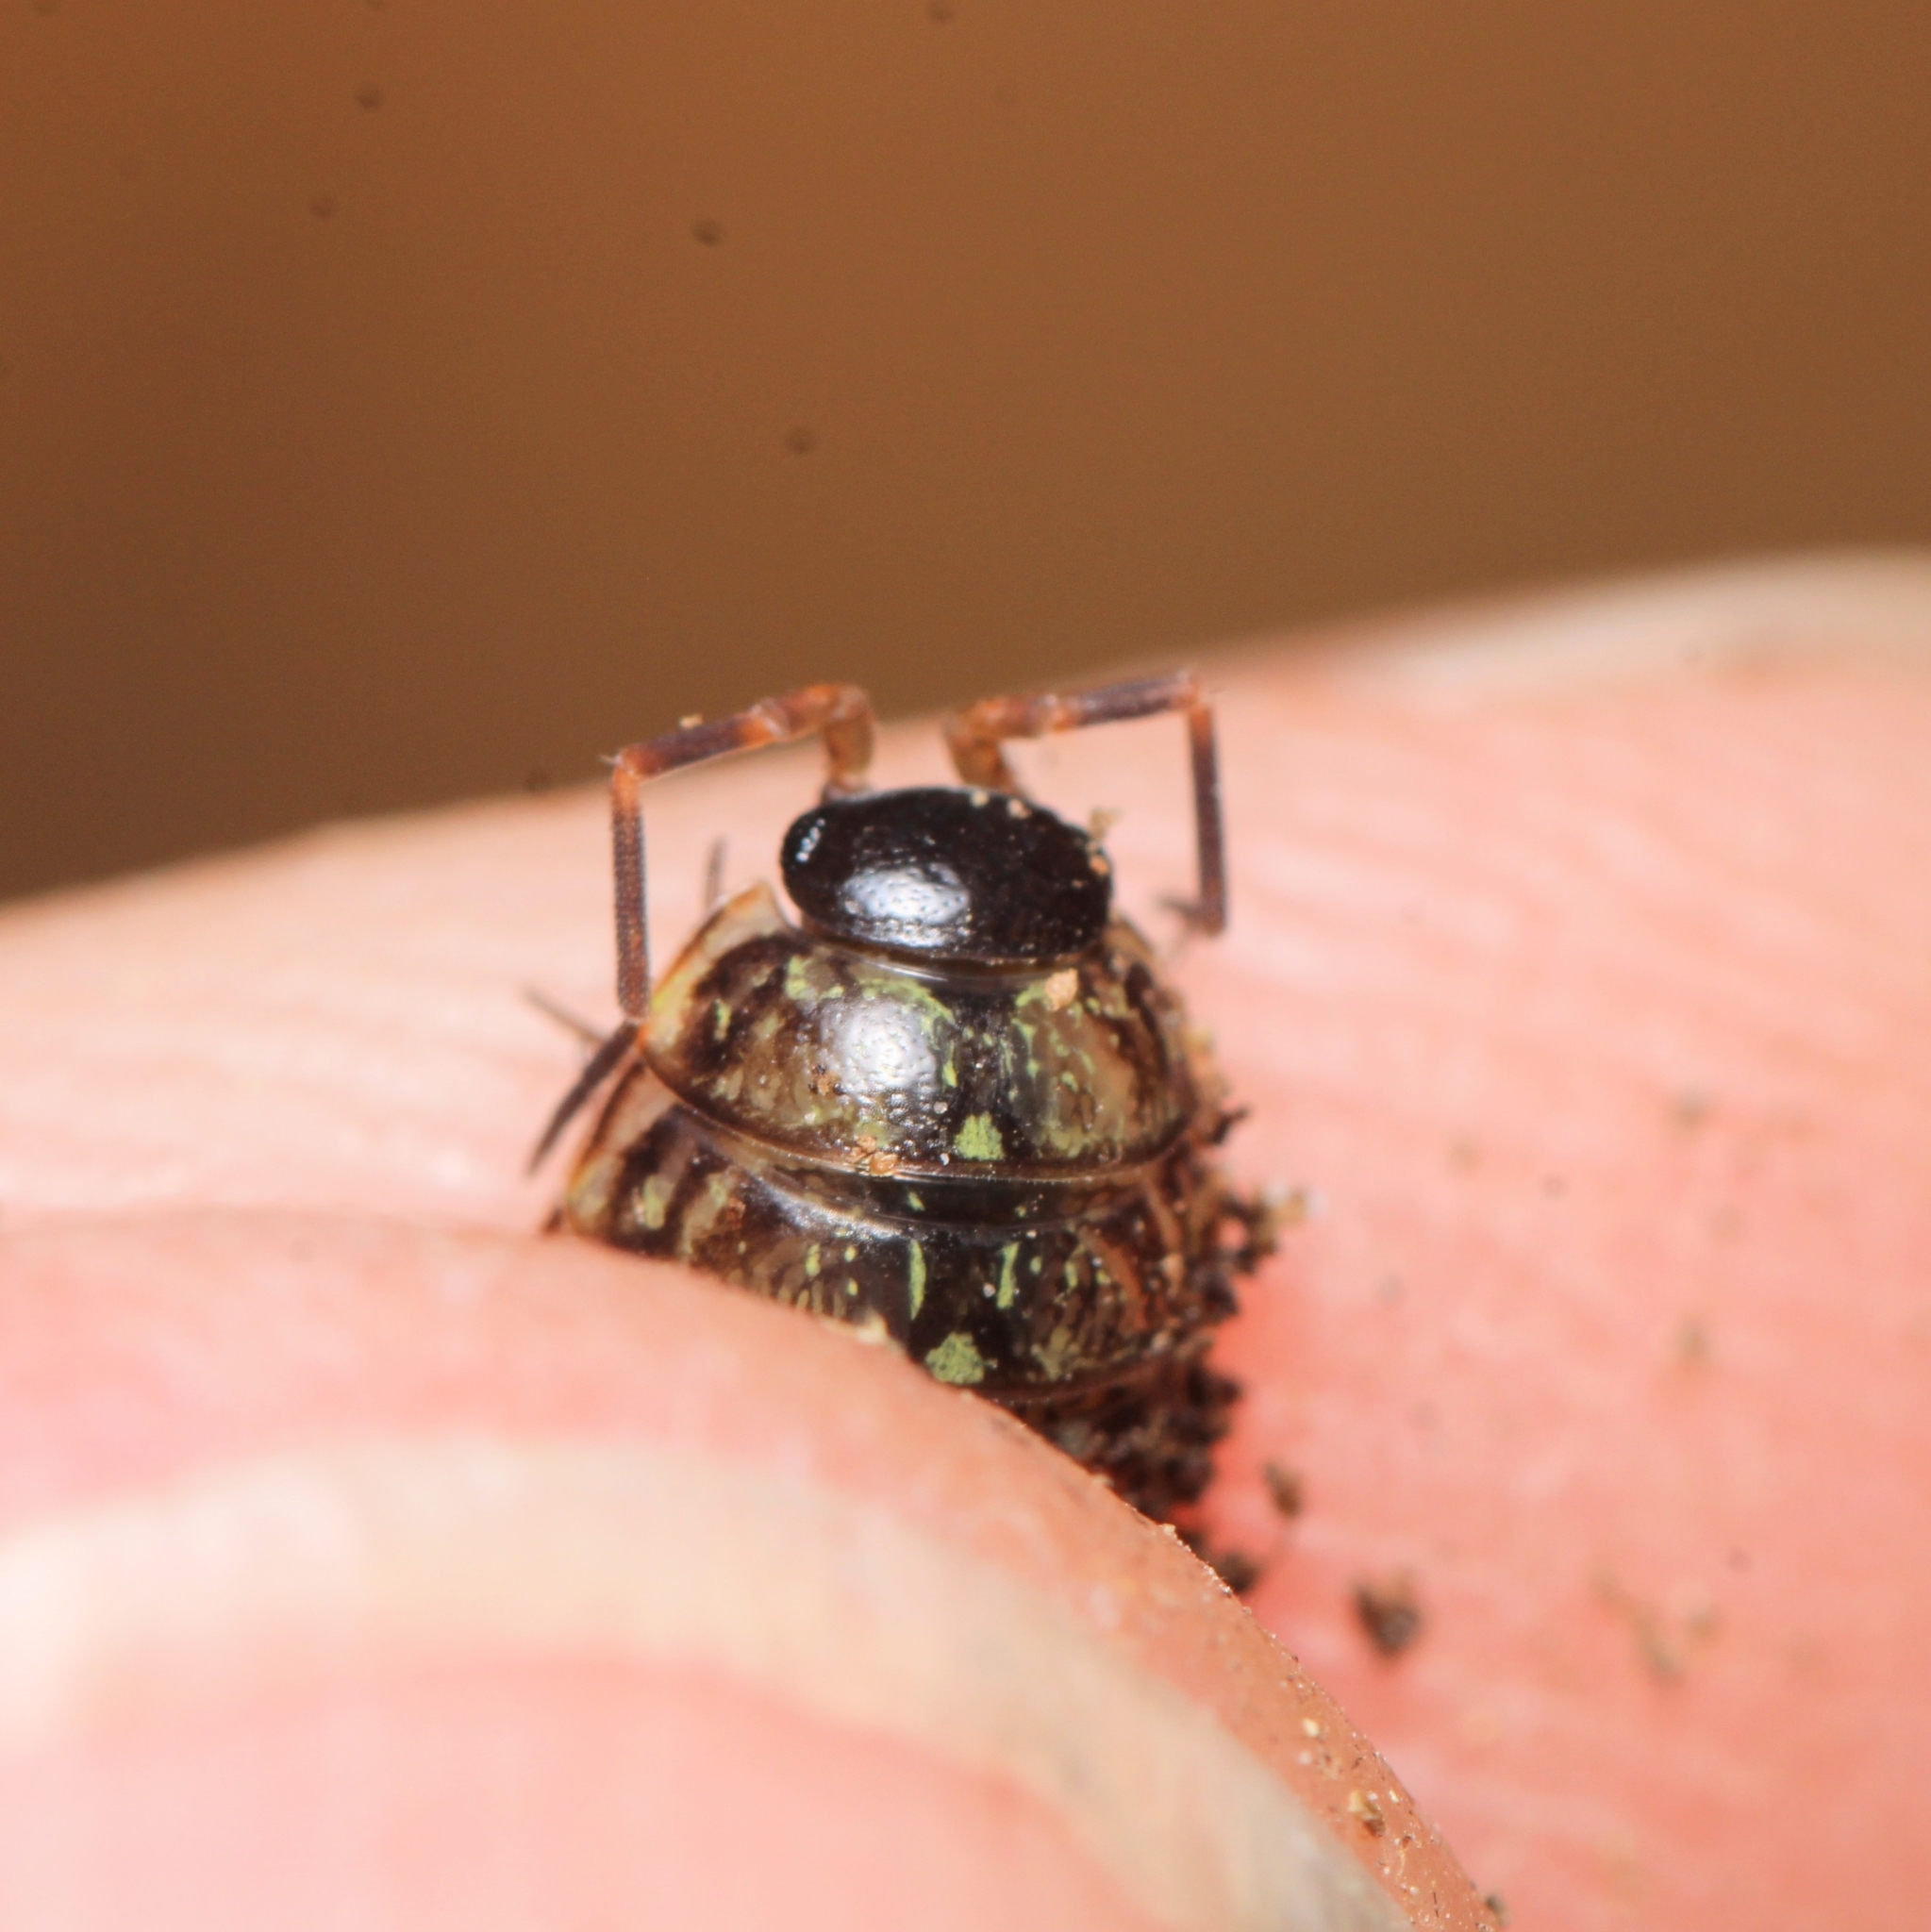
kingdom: Animalia
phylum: Arthropoda
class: Malacostraca
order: Isopoda
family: Philosciidae
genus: Philoscia
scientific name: Philoscia muscorum
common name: Common striped woodlouse
